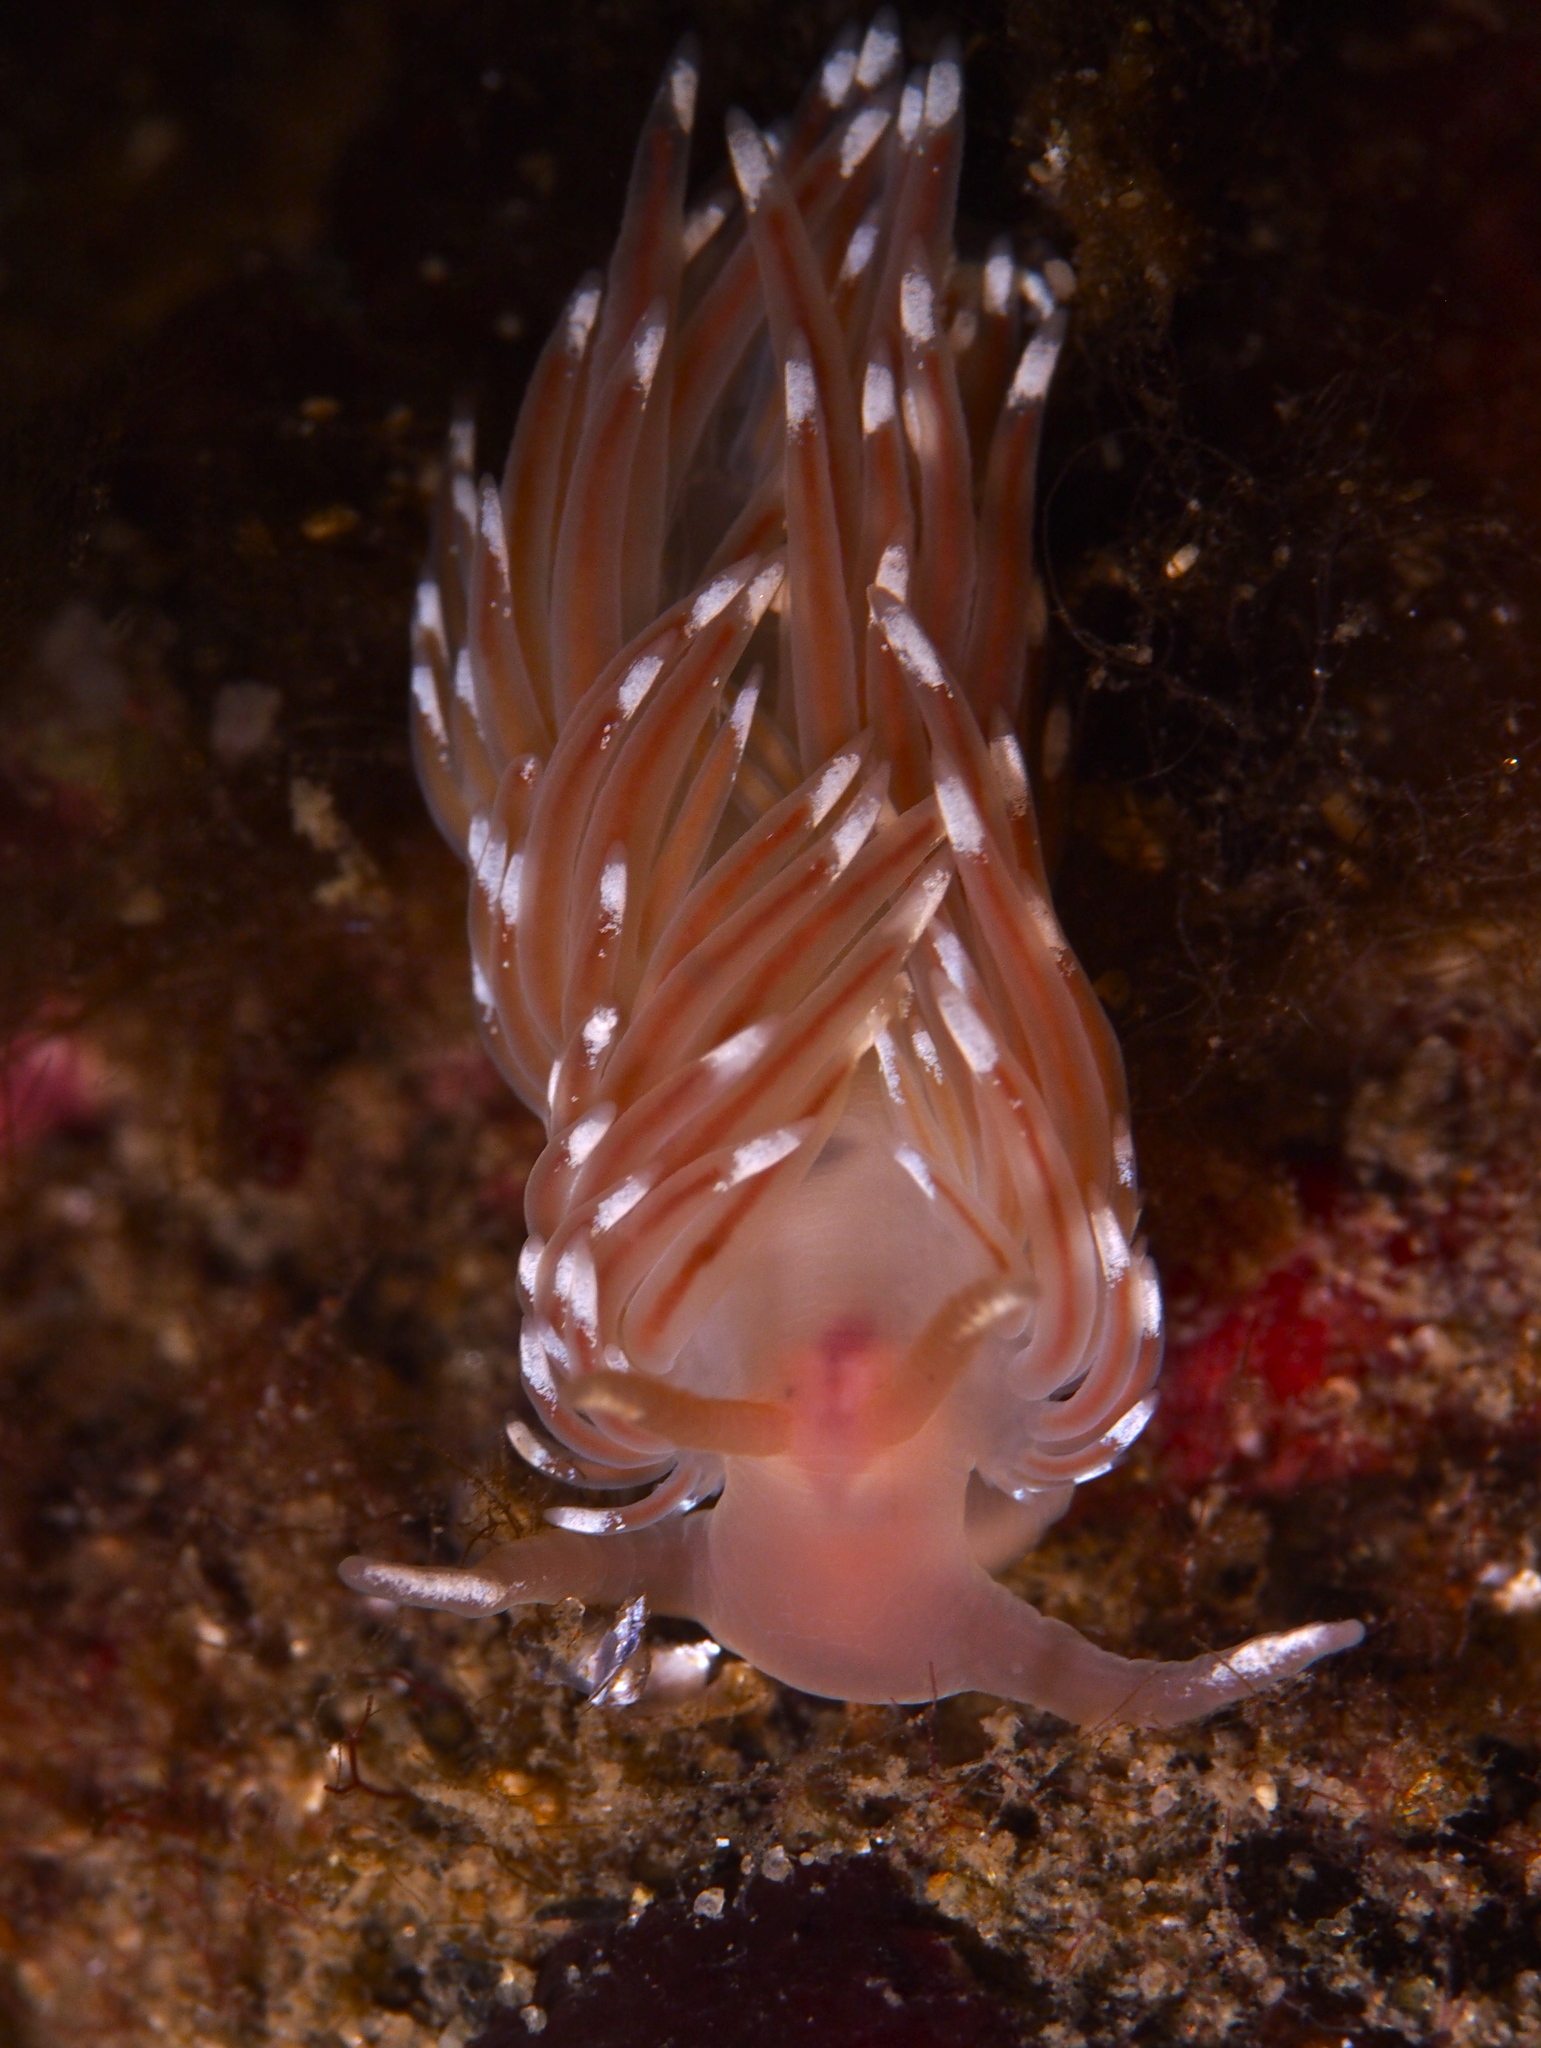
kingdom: Animalia
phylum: Mollusca
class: Gastropoda
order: Nudibranchia
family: Facelinidae
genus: Facelina
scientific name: Facelina bostoniensis
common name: Boston facelina
